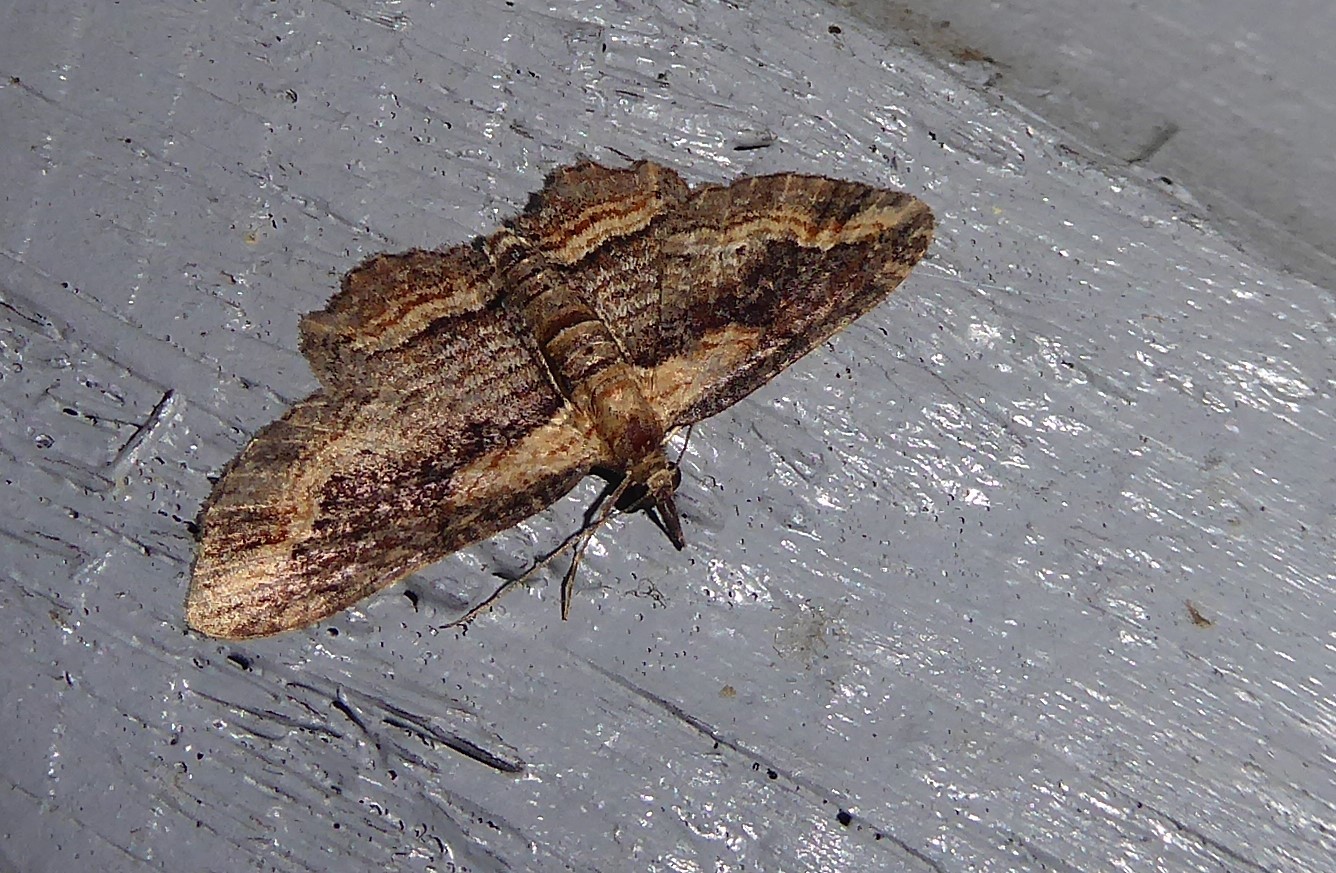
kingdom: Animalia
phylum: Arthropoda
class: Insecta
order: Lepidoptera
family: Geometridae
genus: Chloroclystis
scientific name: Chloroclystis filata
